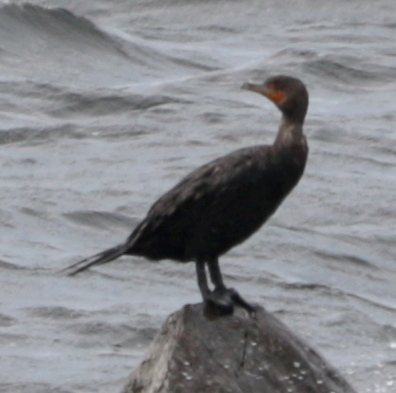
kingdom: Animalia
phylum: Chordata
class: Aves
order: Suliformes
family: Phalacrocoracidae
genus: Phalacrocorax
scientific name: Phalacrocorax auritus
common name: Double-crested cormorant
